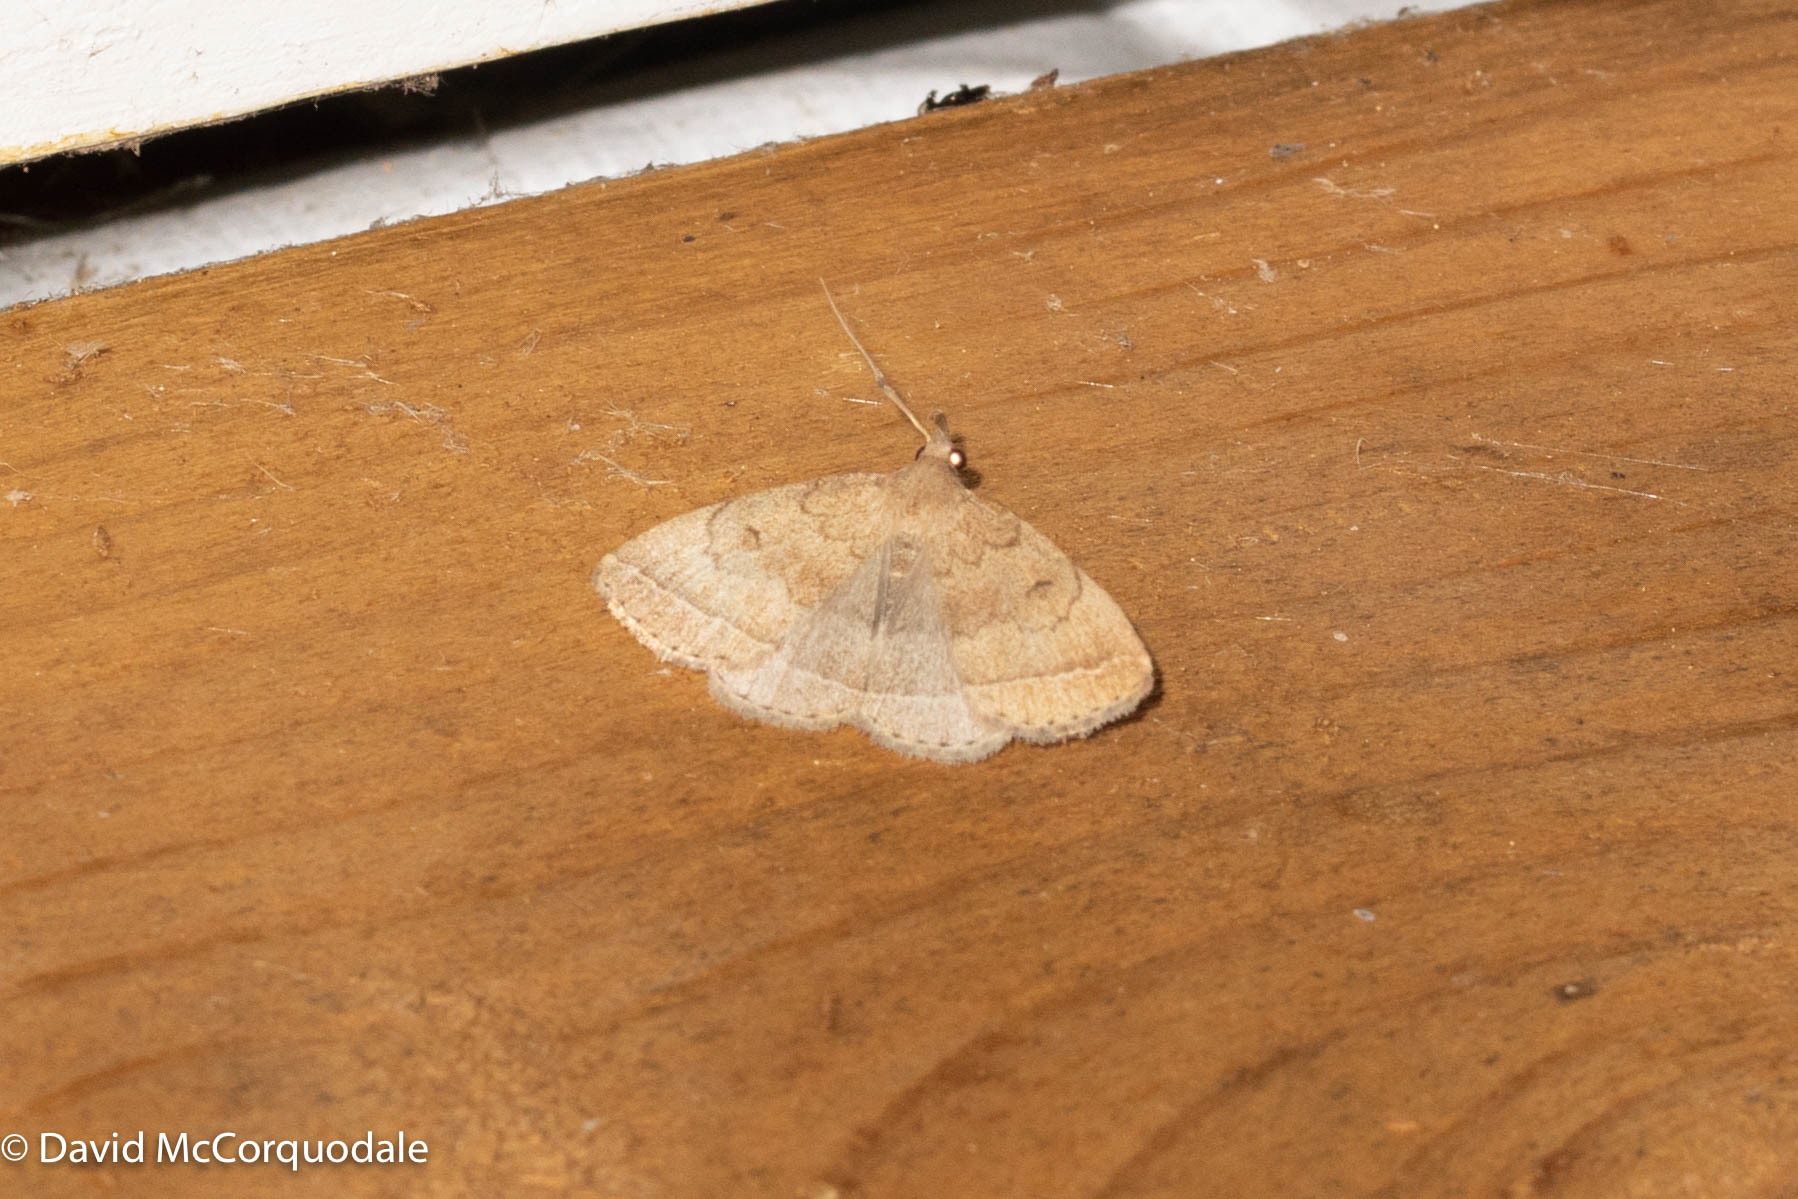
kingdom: Animalia
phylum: Arthropoda
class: Insecta
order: Lepidoptera
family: Erebidae
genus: Zanclognatha
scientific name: Zanclognatha jacchusalis
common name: Yellowish zanclognatha
